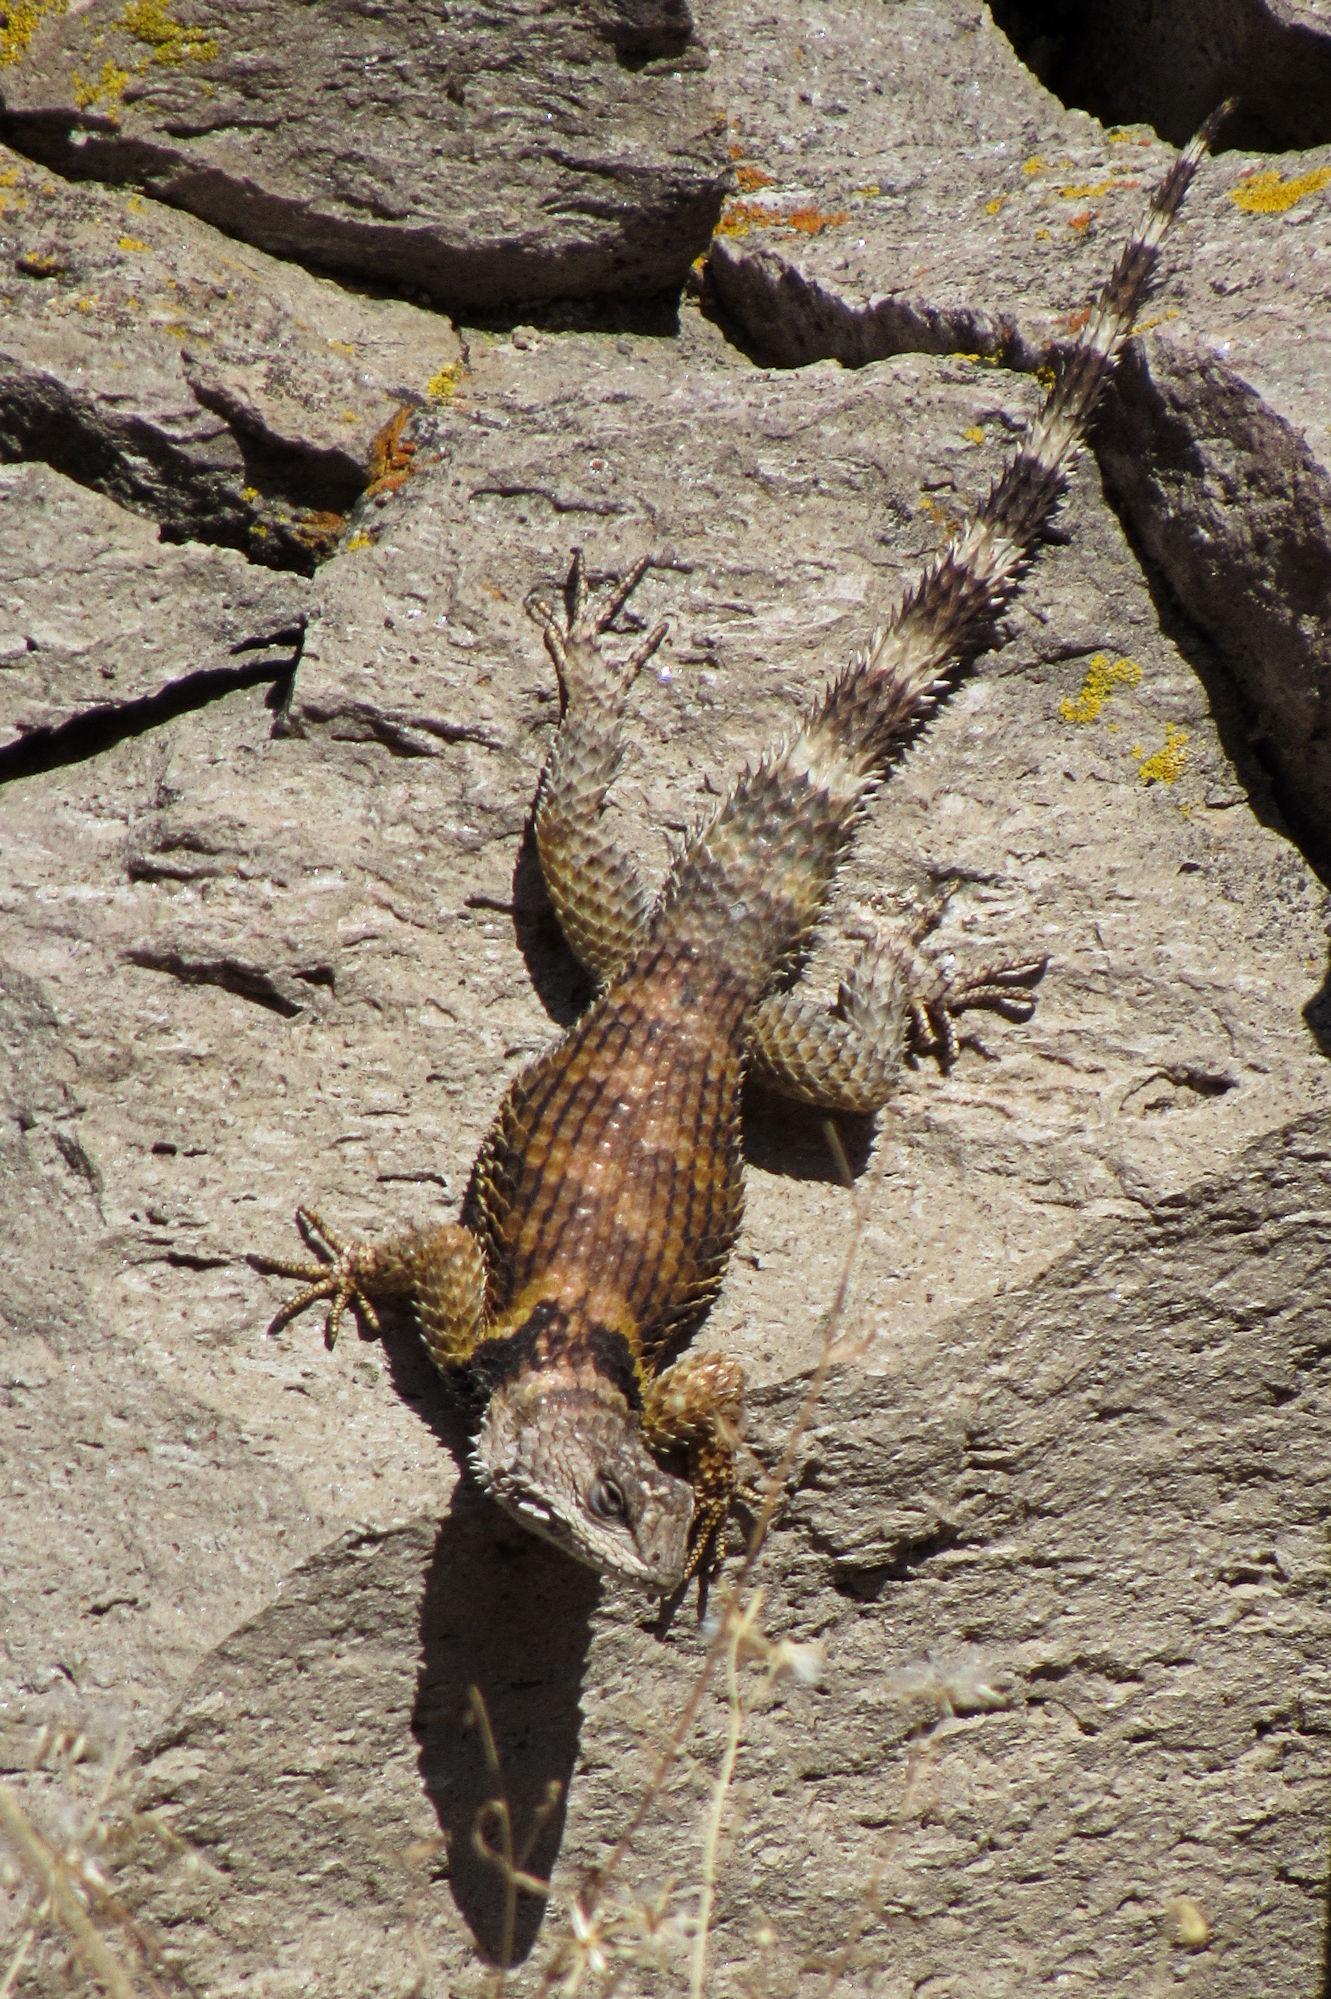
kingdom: Animalia
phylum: Chordata
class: Squamata
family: Phrynosomatidae
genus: Sceloporus
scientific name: Sceloporus poinsettii
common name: Crevice spiny lizard
